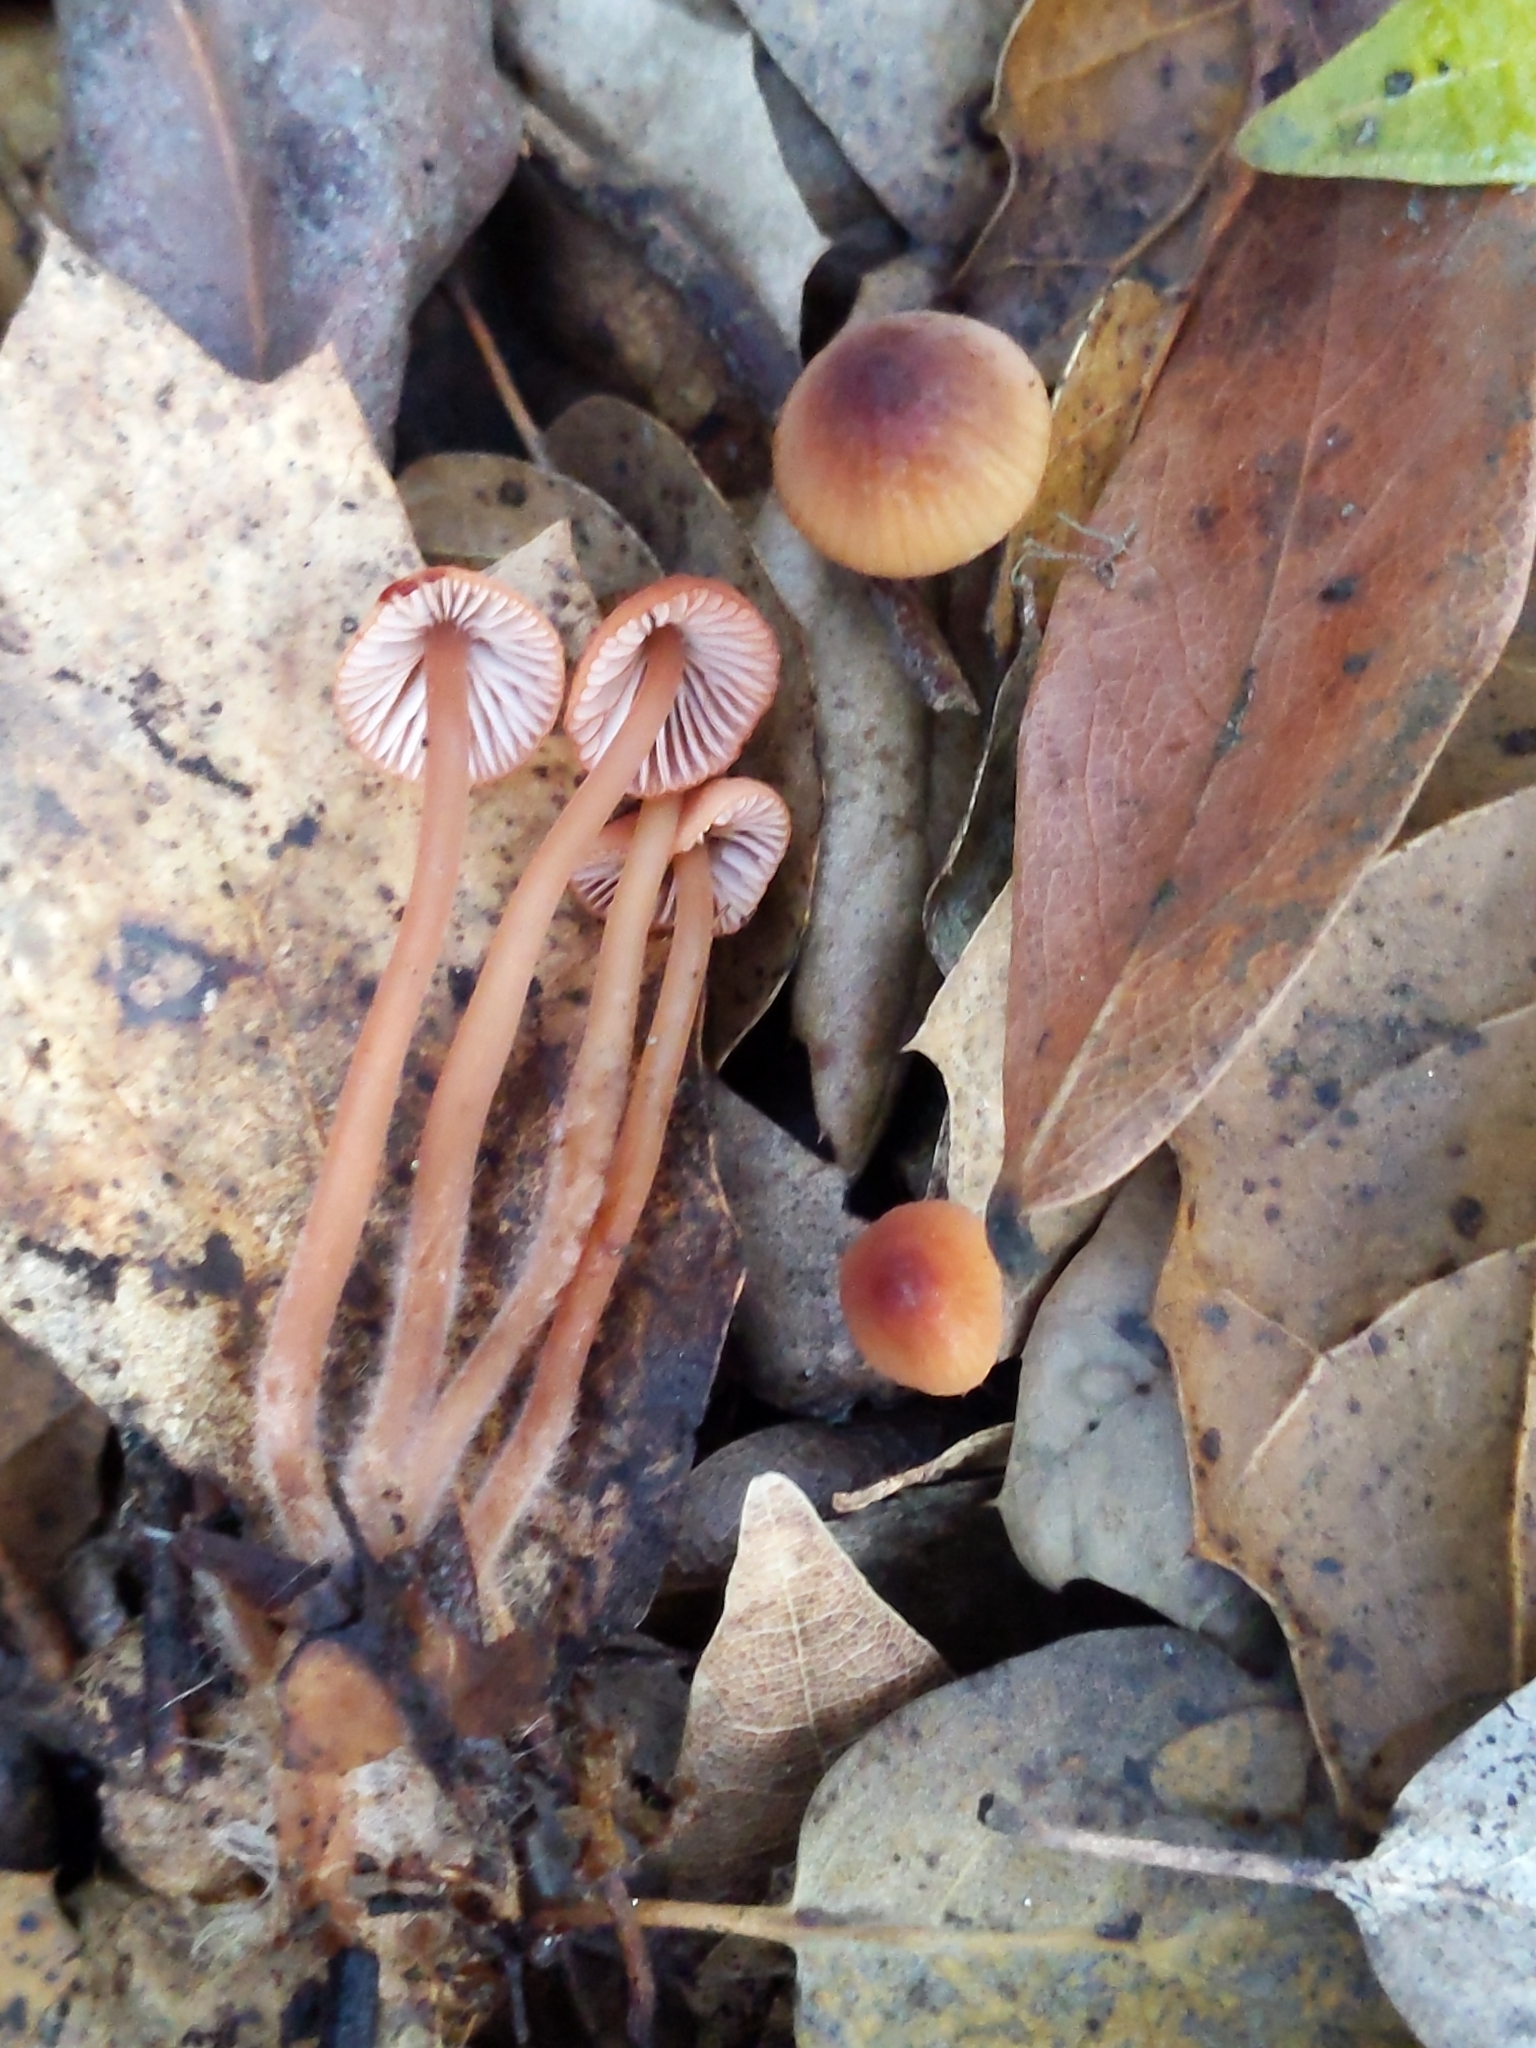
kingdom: Fungi
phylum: Basidiomycota
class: Agaricomycetes
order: Agaricales
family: Mycenaceae
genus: Mycena
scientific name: Mycena
